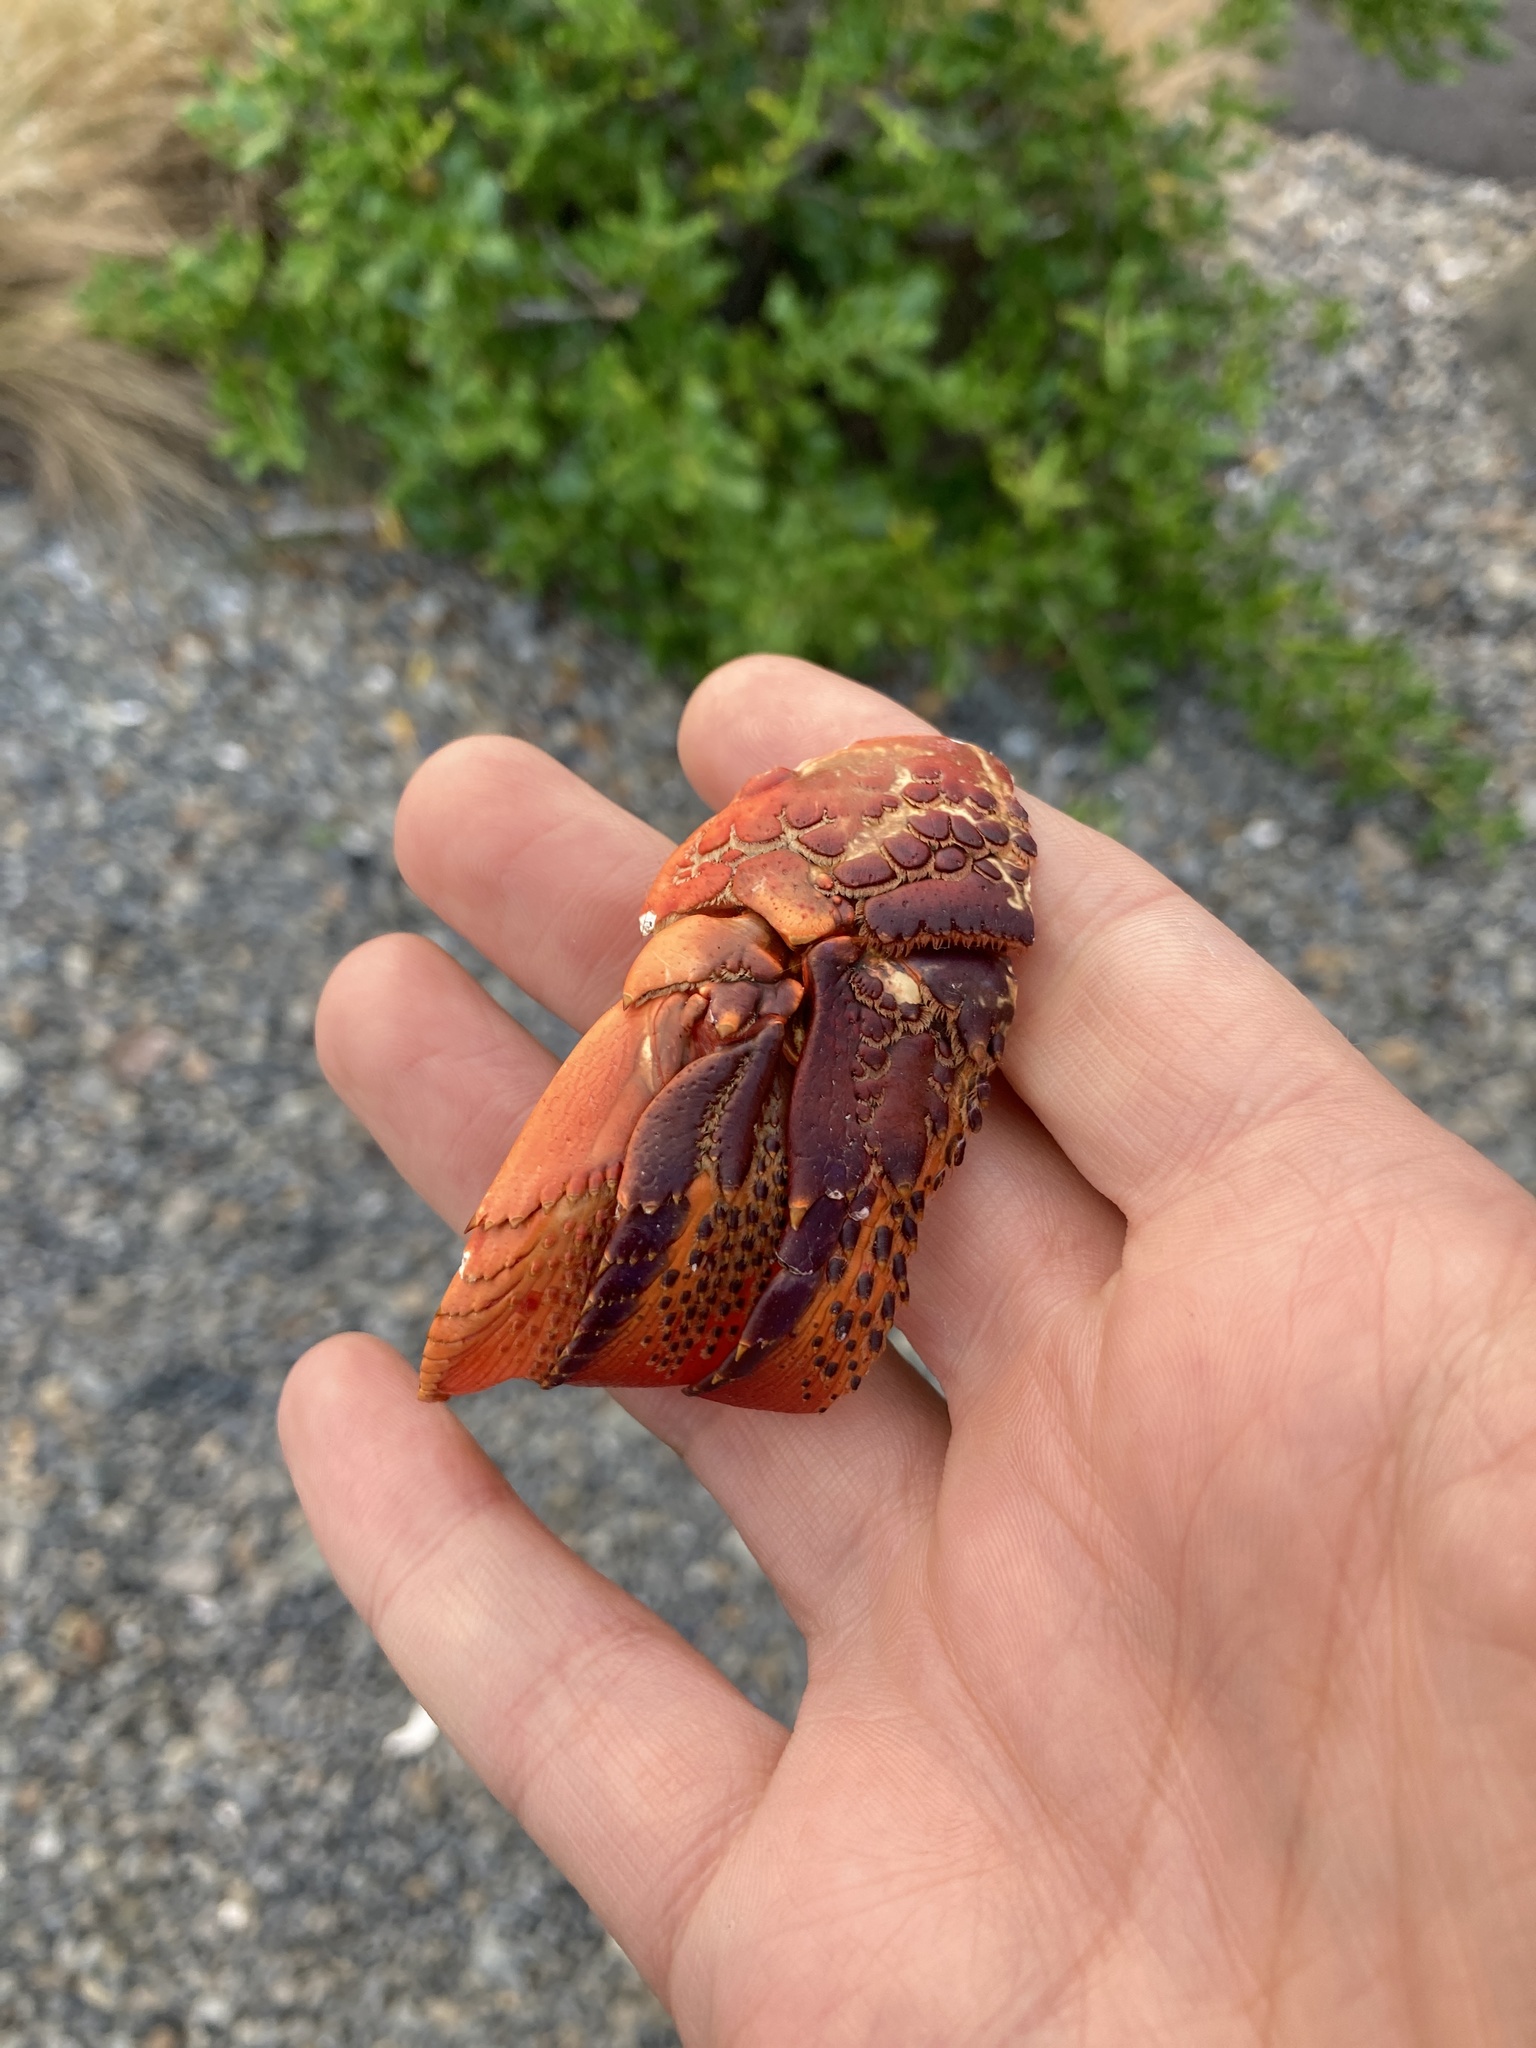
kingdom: Animalia
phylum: Arthropoda
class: Malacostraca
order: Decapoda
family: Palinuridae
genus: Jasus
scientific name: Jasus edwardsii
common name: Red rock lobster
